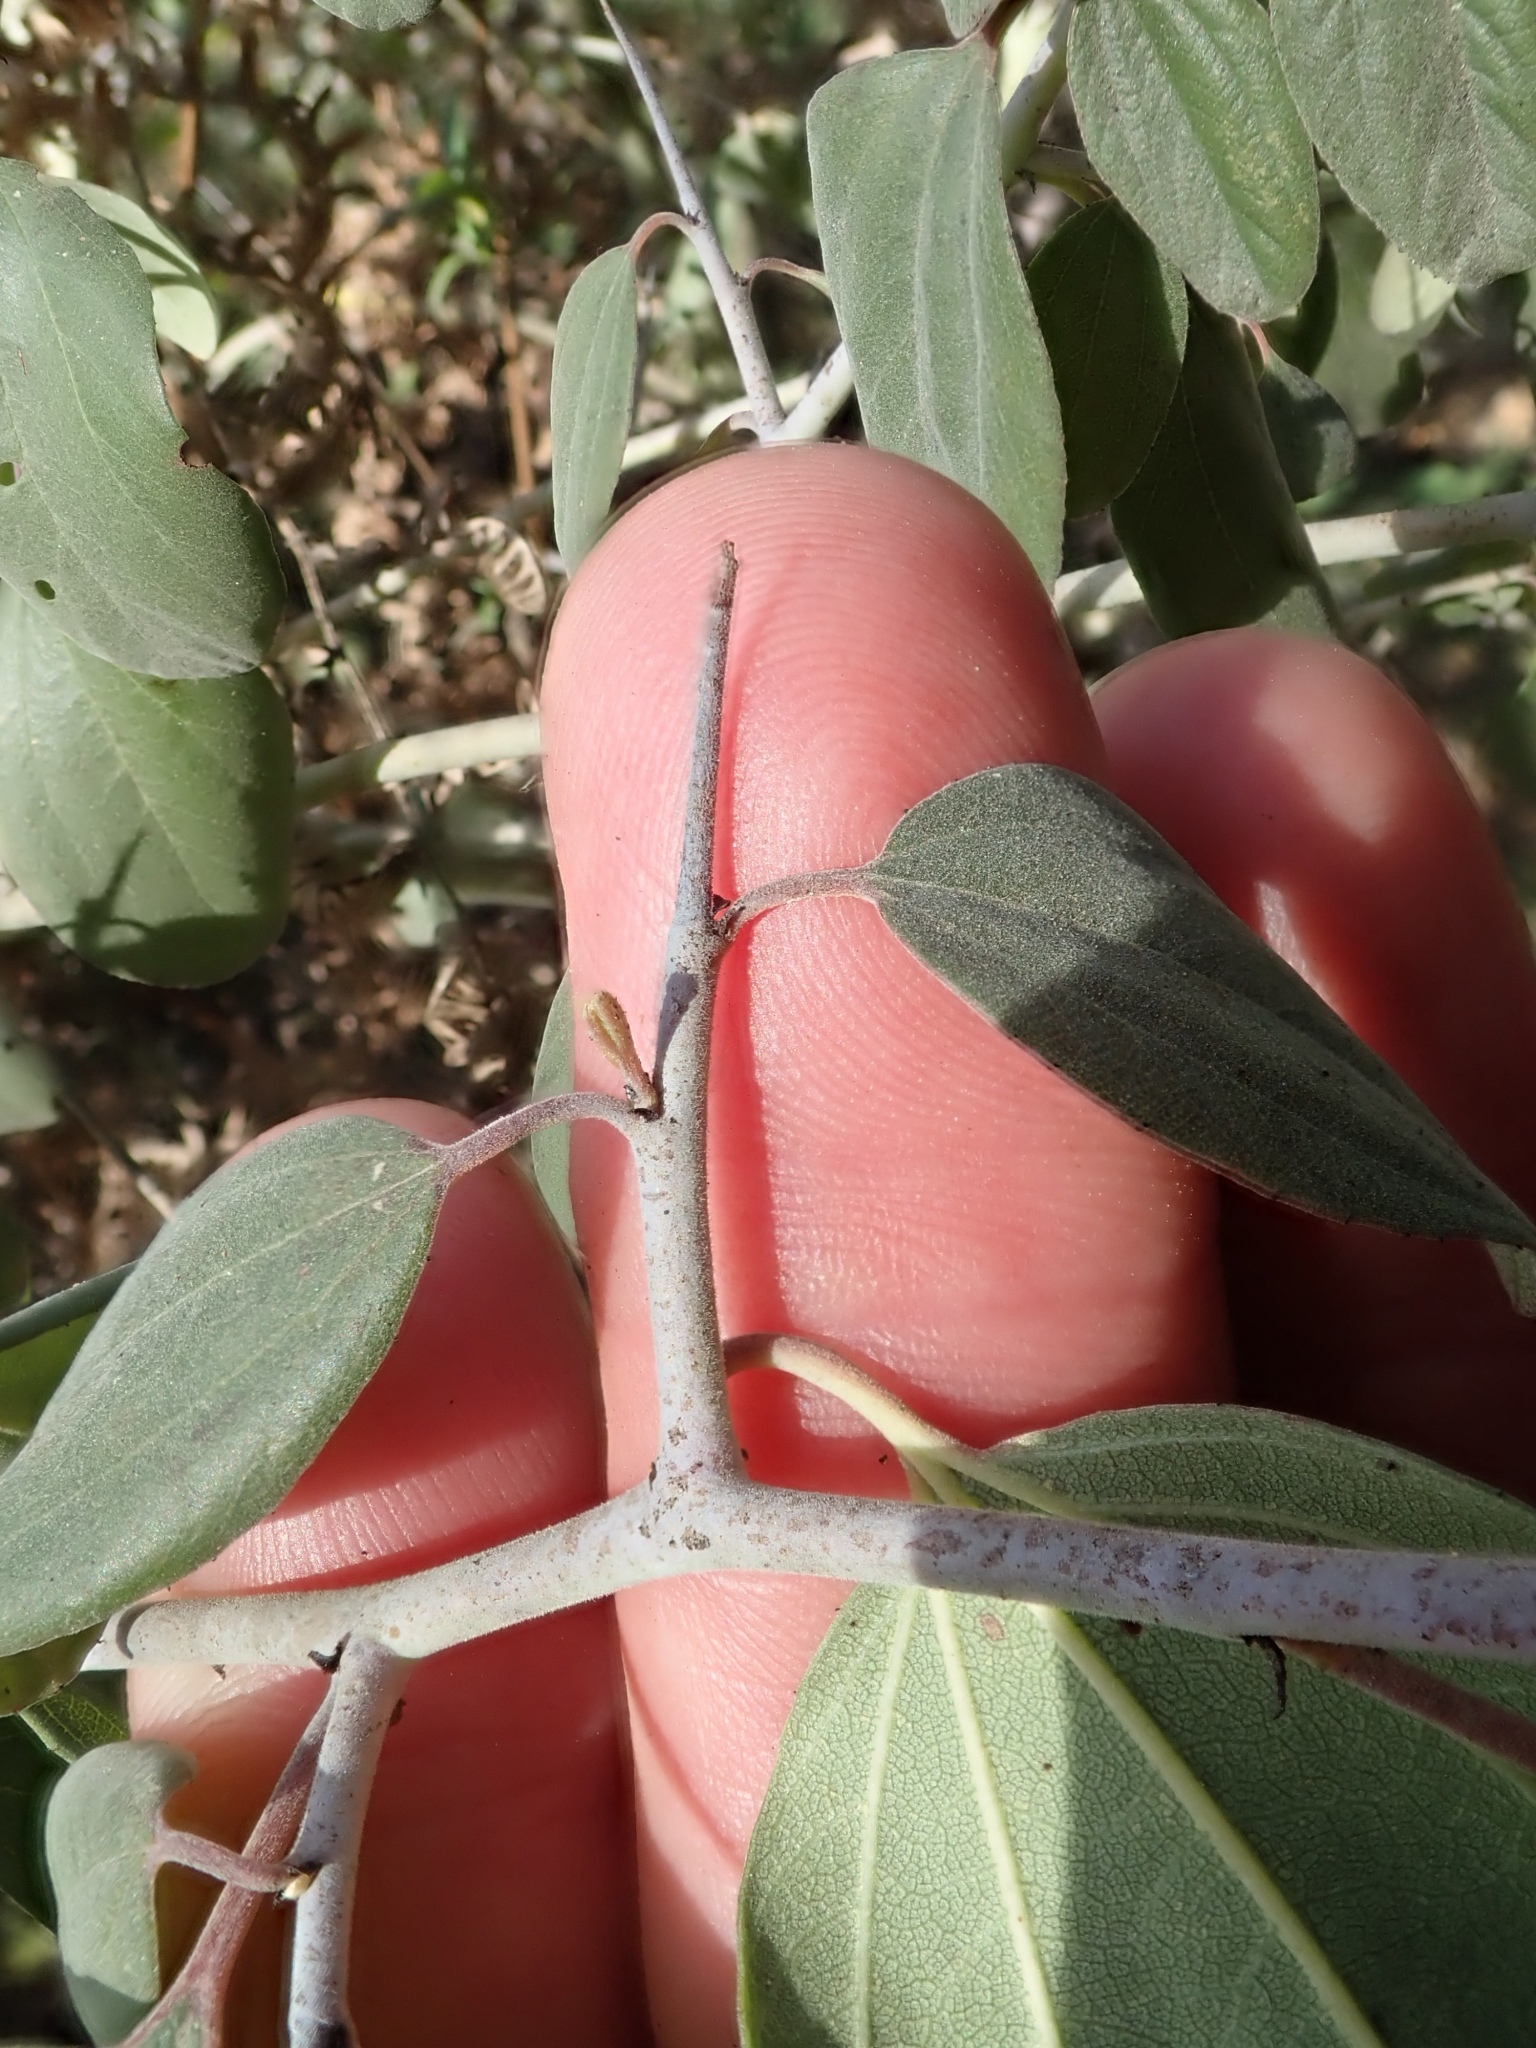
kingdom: Plantae
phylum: Tracheophyta
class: Magnoliopsida
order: Rosales
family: Rhamnaceae
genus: Ceanothus
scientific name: Ceanothus incanus
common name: Coast whitethorn
